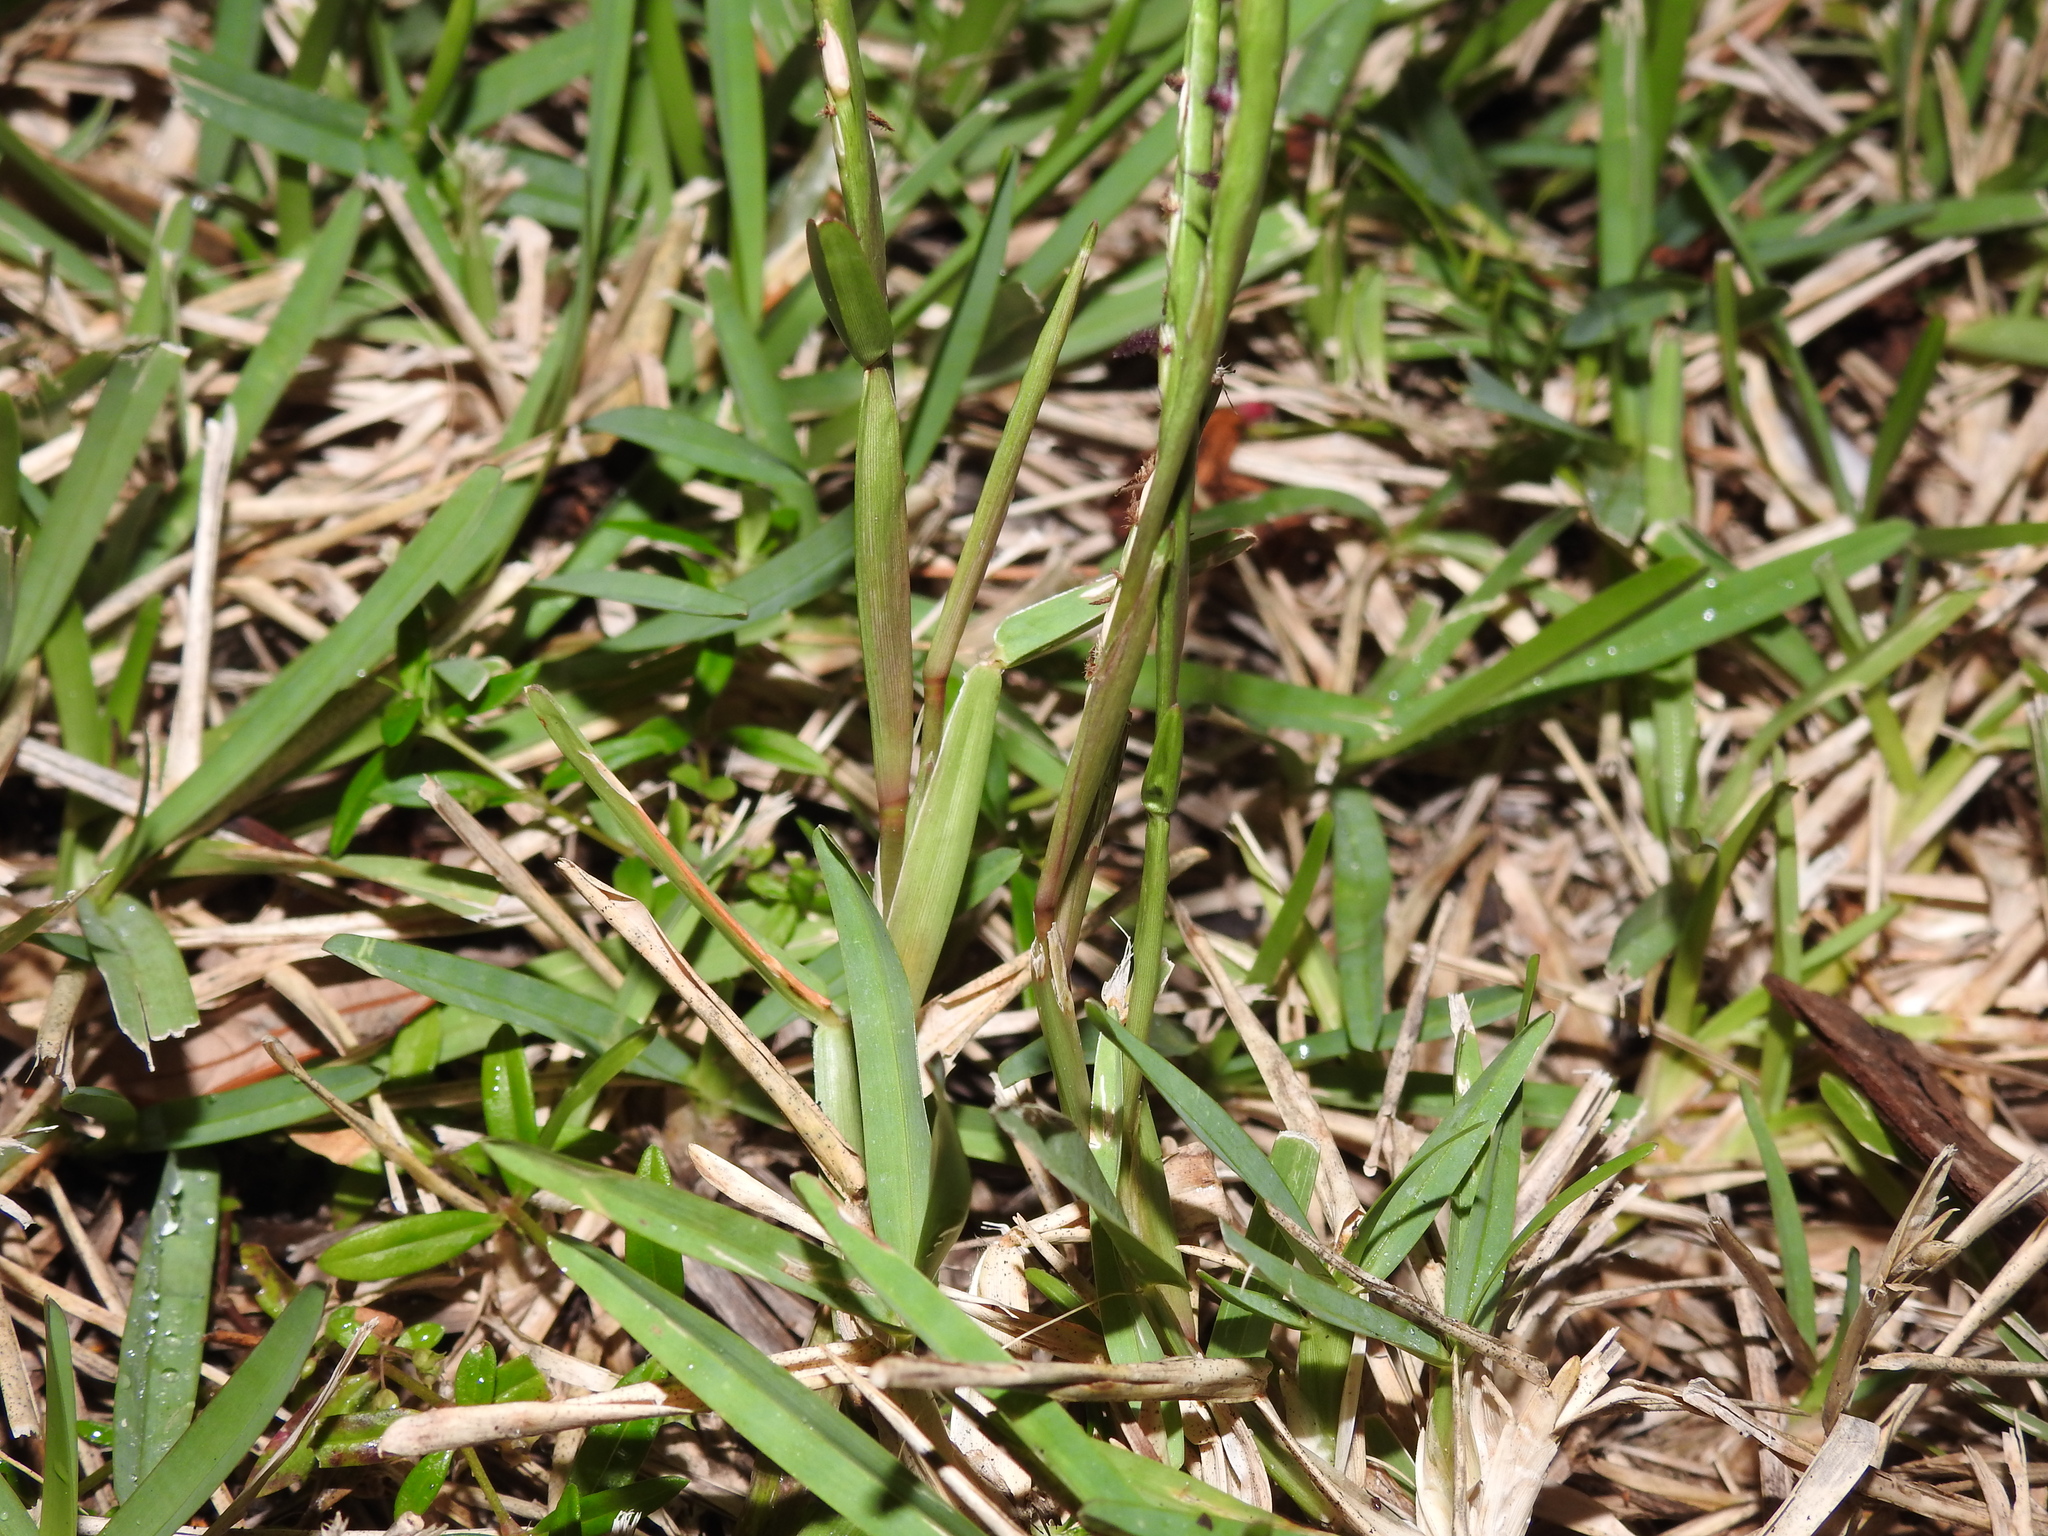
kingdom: Plantae
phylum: Tracheophyta
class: Liliopsida
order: Poales
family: Poaceae
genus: Eremochloa
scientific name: Eremochloa ophiuroides
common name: Centipede grass
